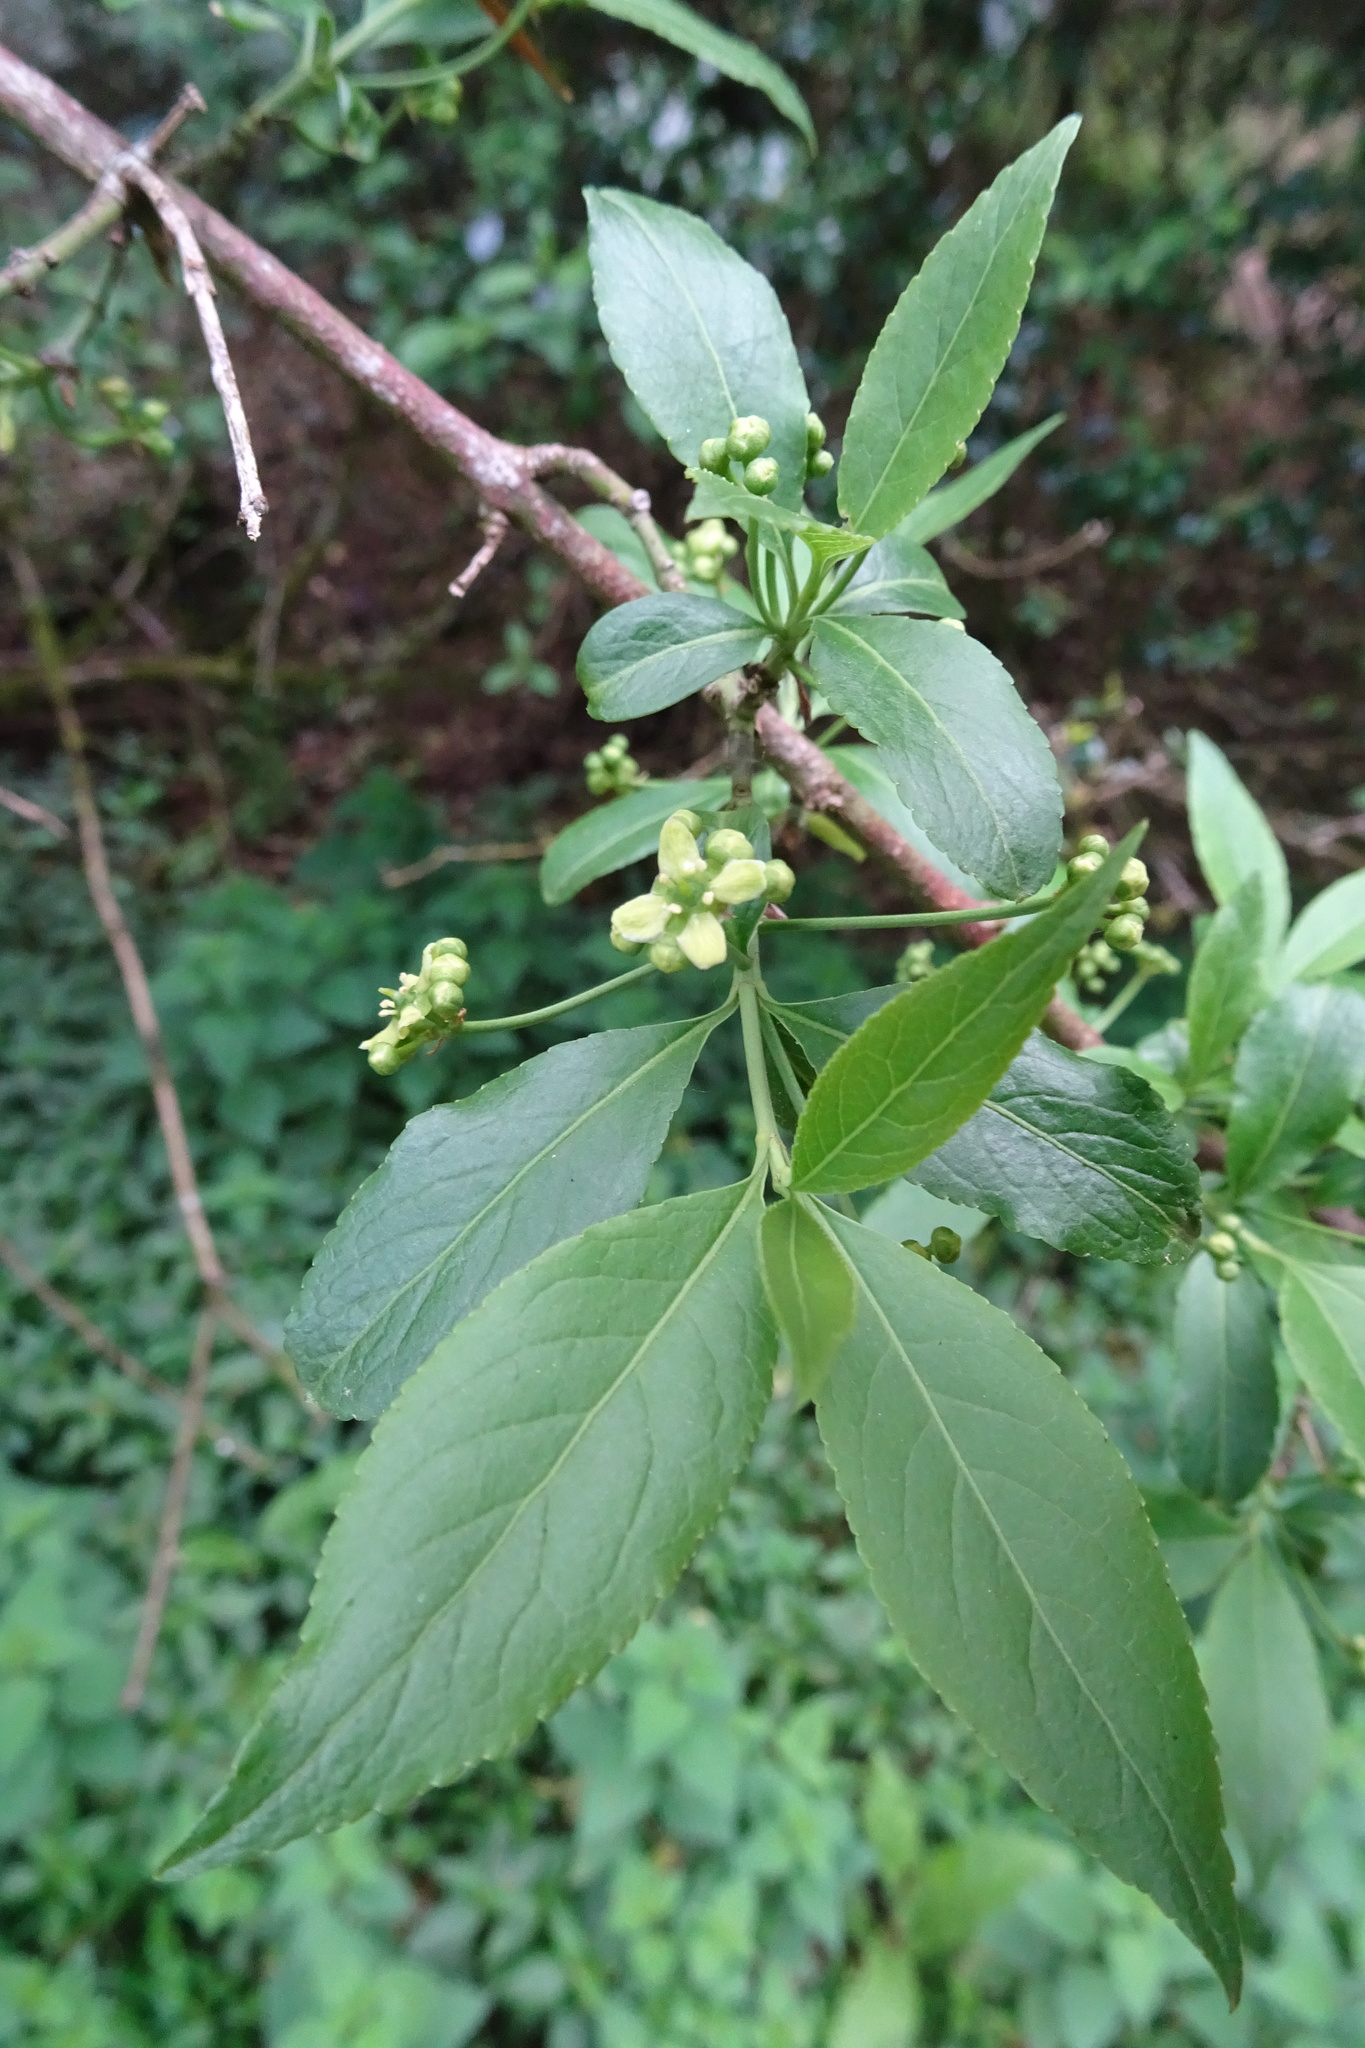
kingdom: Plantae
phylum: Tracheophyta
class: Magnoliopsida
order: Celastrales
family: Celastraceae
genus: Euonymus
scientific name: Euonymus europaeus
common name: Spindle
